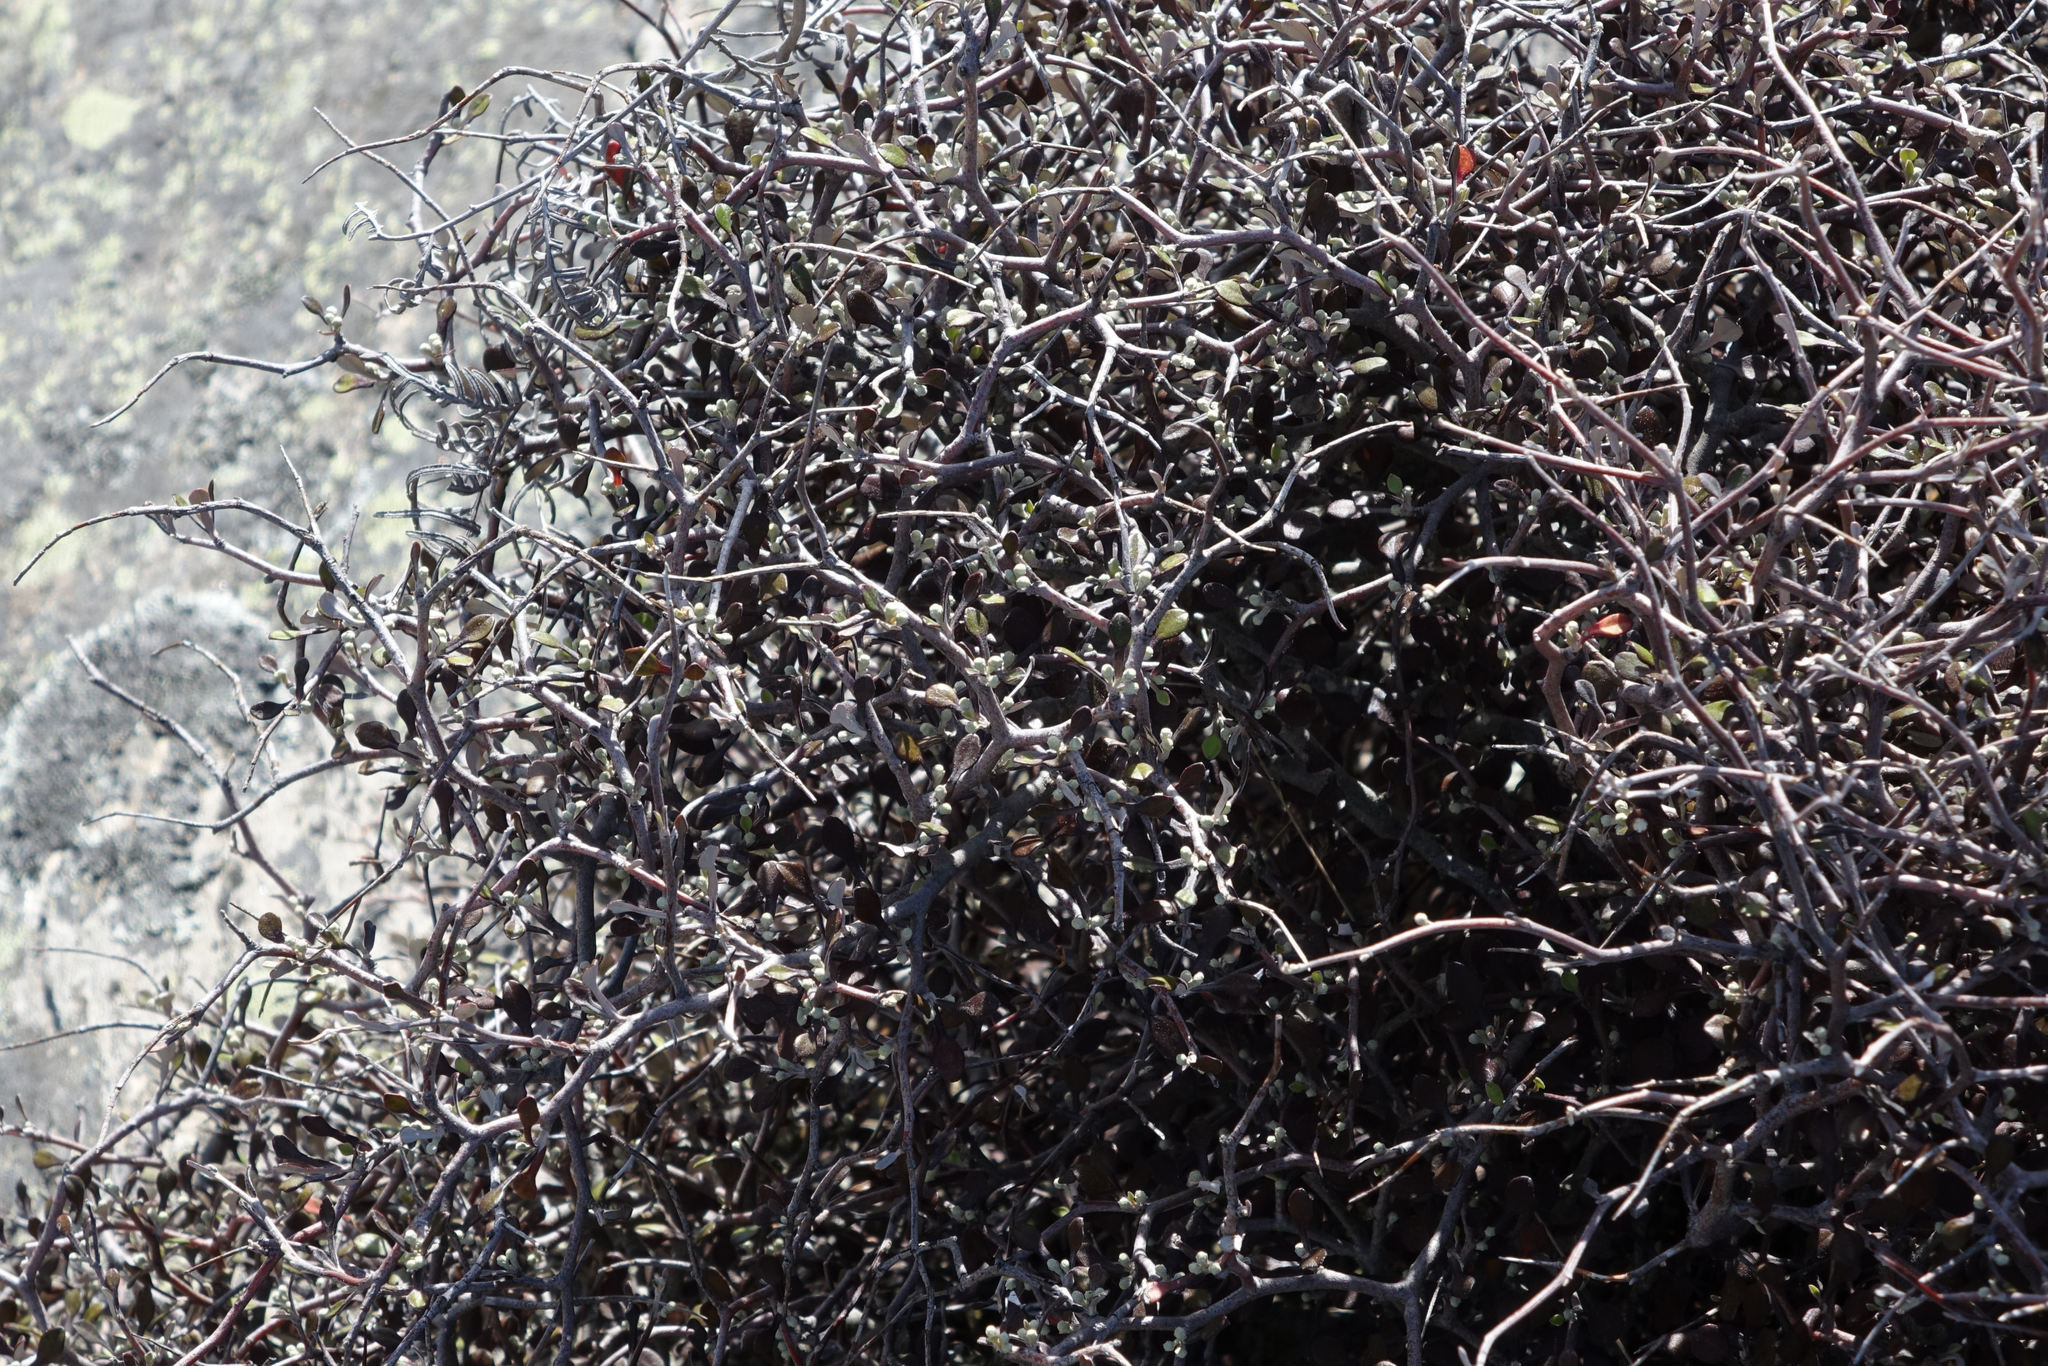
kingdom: Plantae
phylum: Tracheophyta
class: Magnoliopsida
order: Asterales
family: Argophyllaceae
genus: Corokia
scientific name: Corokia cotoneaster
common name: Wire nettingbush
